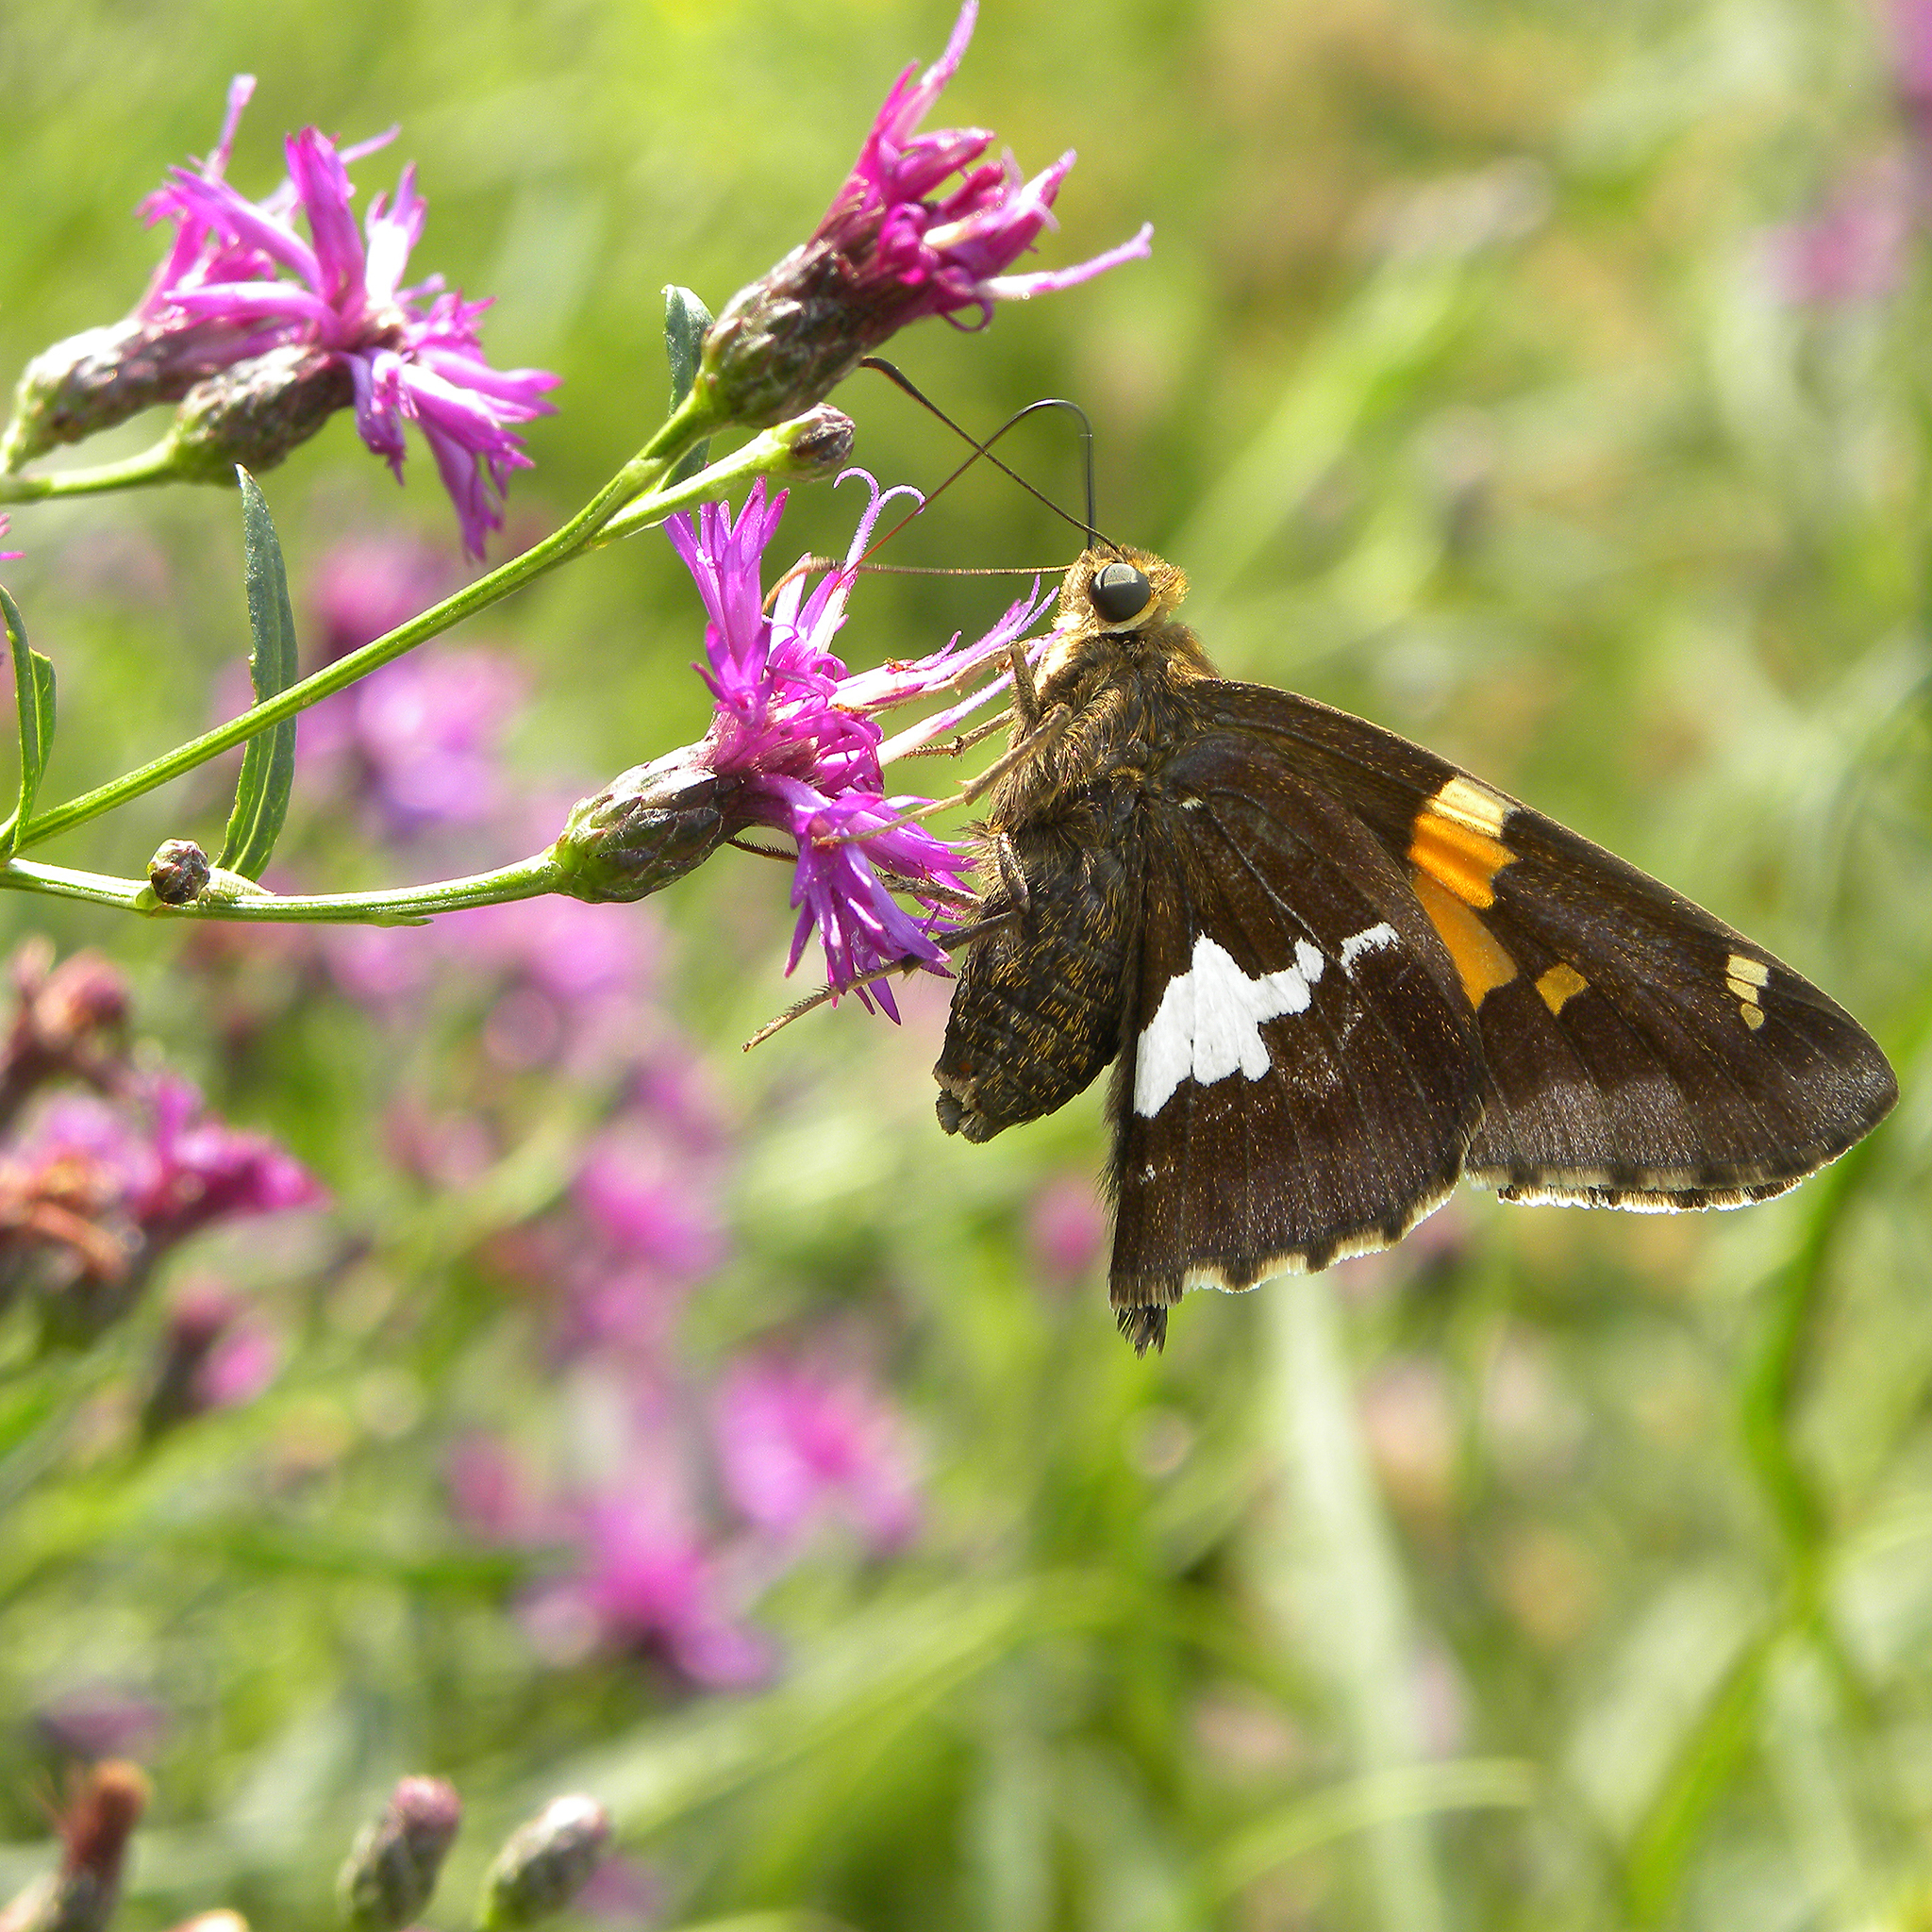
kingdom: Animalia
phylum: Arthropoda
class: Insecta
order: Lepidoptera
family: Hesperiidae
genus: Epargyreus
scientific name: Epargyreus clarus
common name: Silver-spotted skipper
